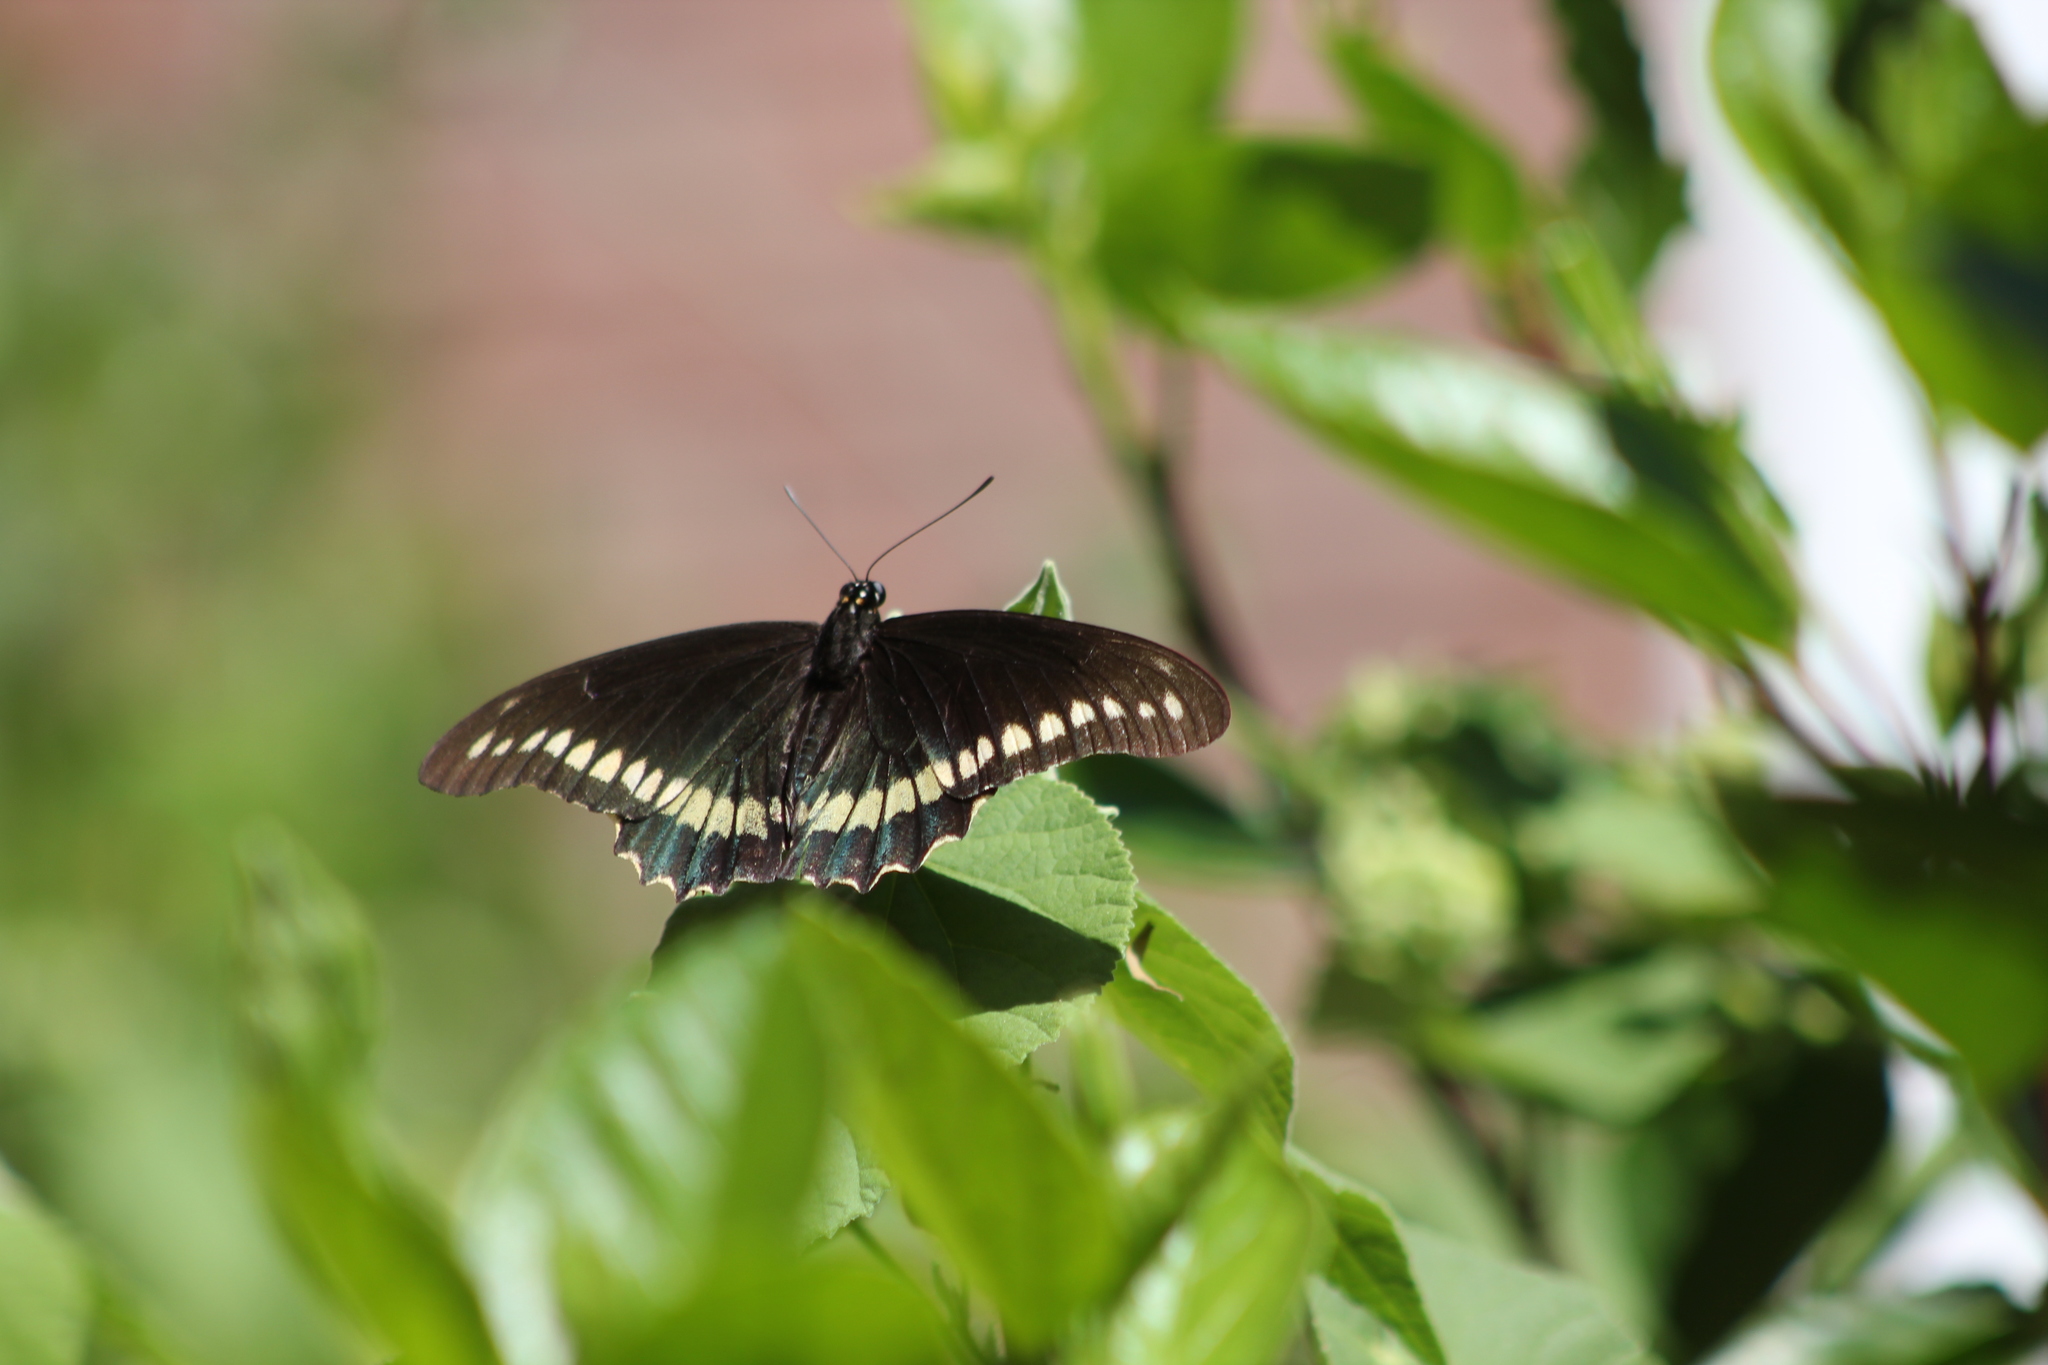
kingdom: Animalia
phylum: Arthropoda
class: Insecta
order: Lepidoptera
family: Papilionidae
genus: Battus
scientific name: Battus polydamas
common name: Polydamas swallowtail
